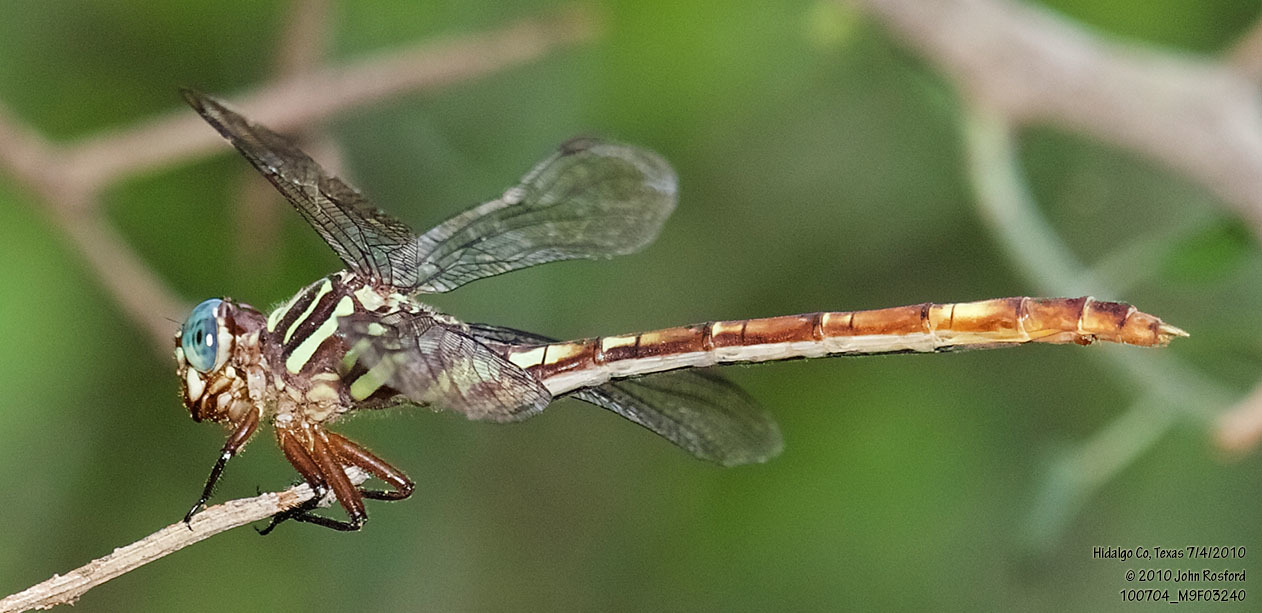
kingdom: Animalia
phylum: Arthropoda
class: Insecta
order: Odonata
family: Gomphidae
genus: Aphylla
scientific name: Aphylla angustifolia
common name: Broad-striped forceptail
